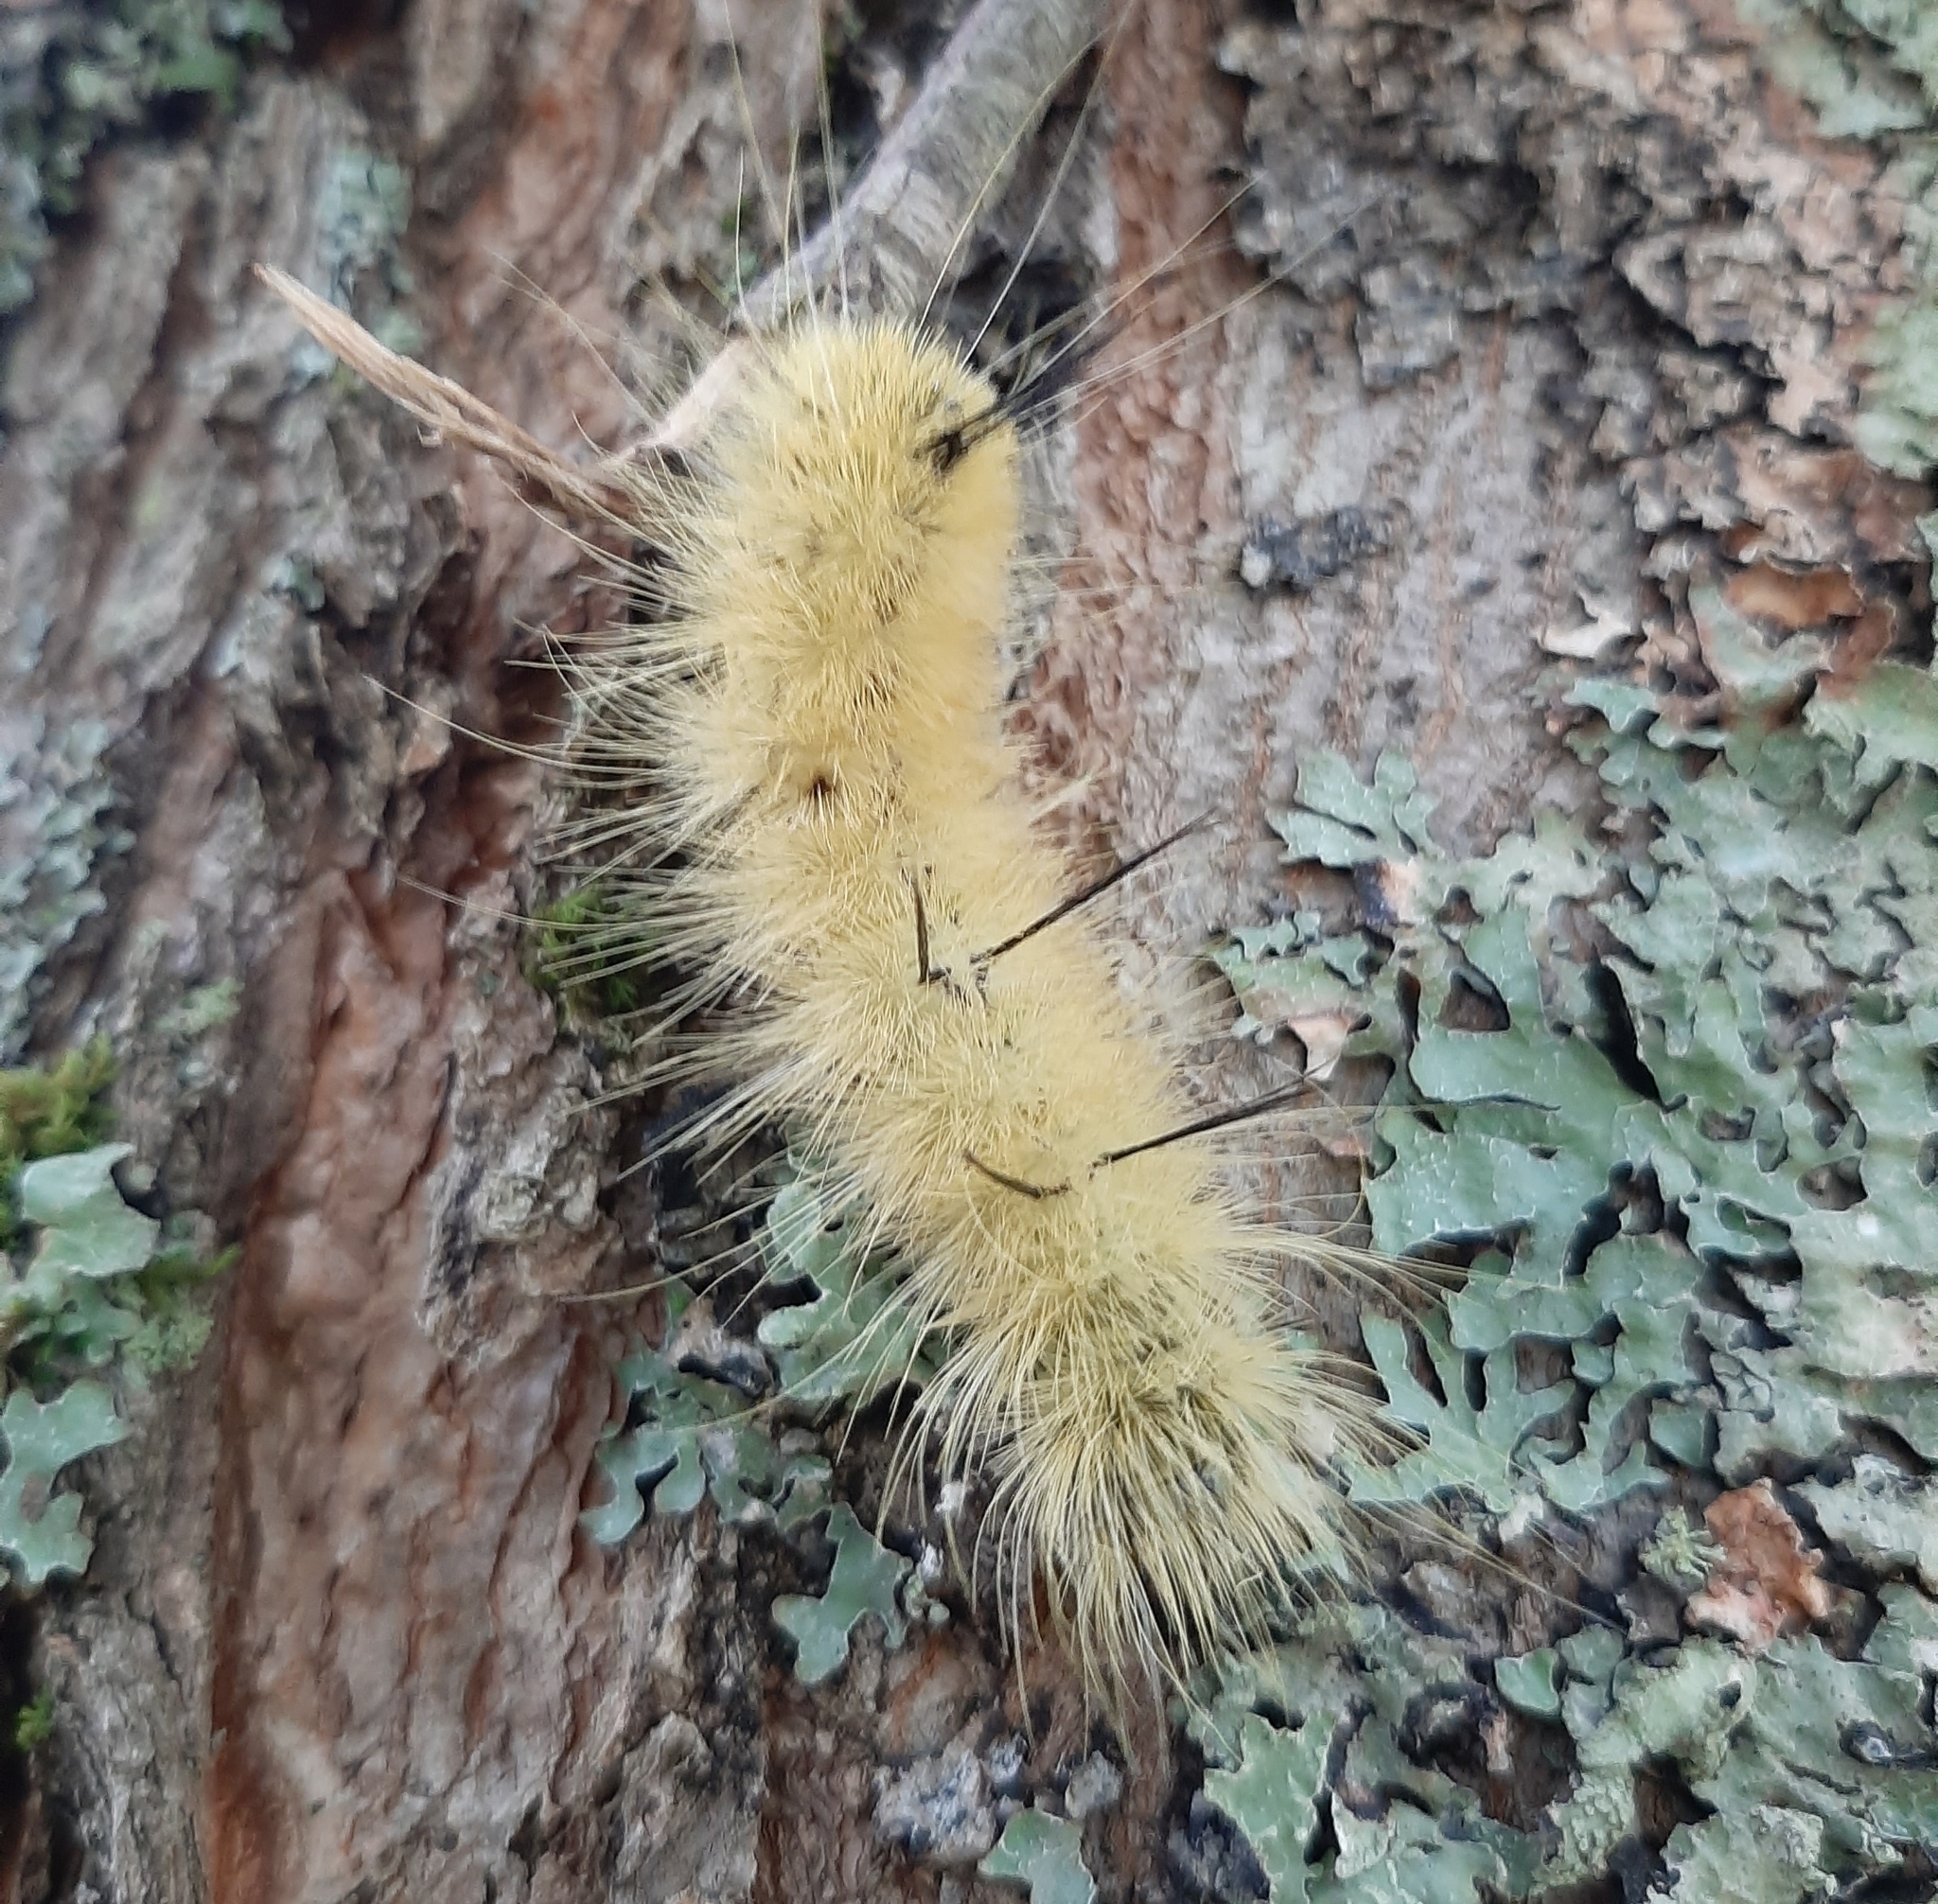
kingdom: Animalia
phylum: Arthropoda
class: Insecta
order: Lepidoptera
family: Noctuidae
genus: Acronicta
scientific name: Acronicta americana
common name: American dagger
